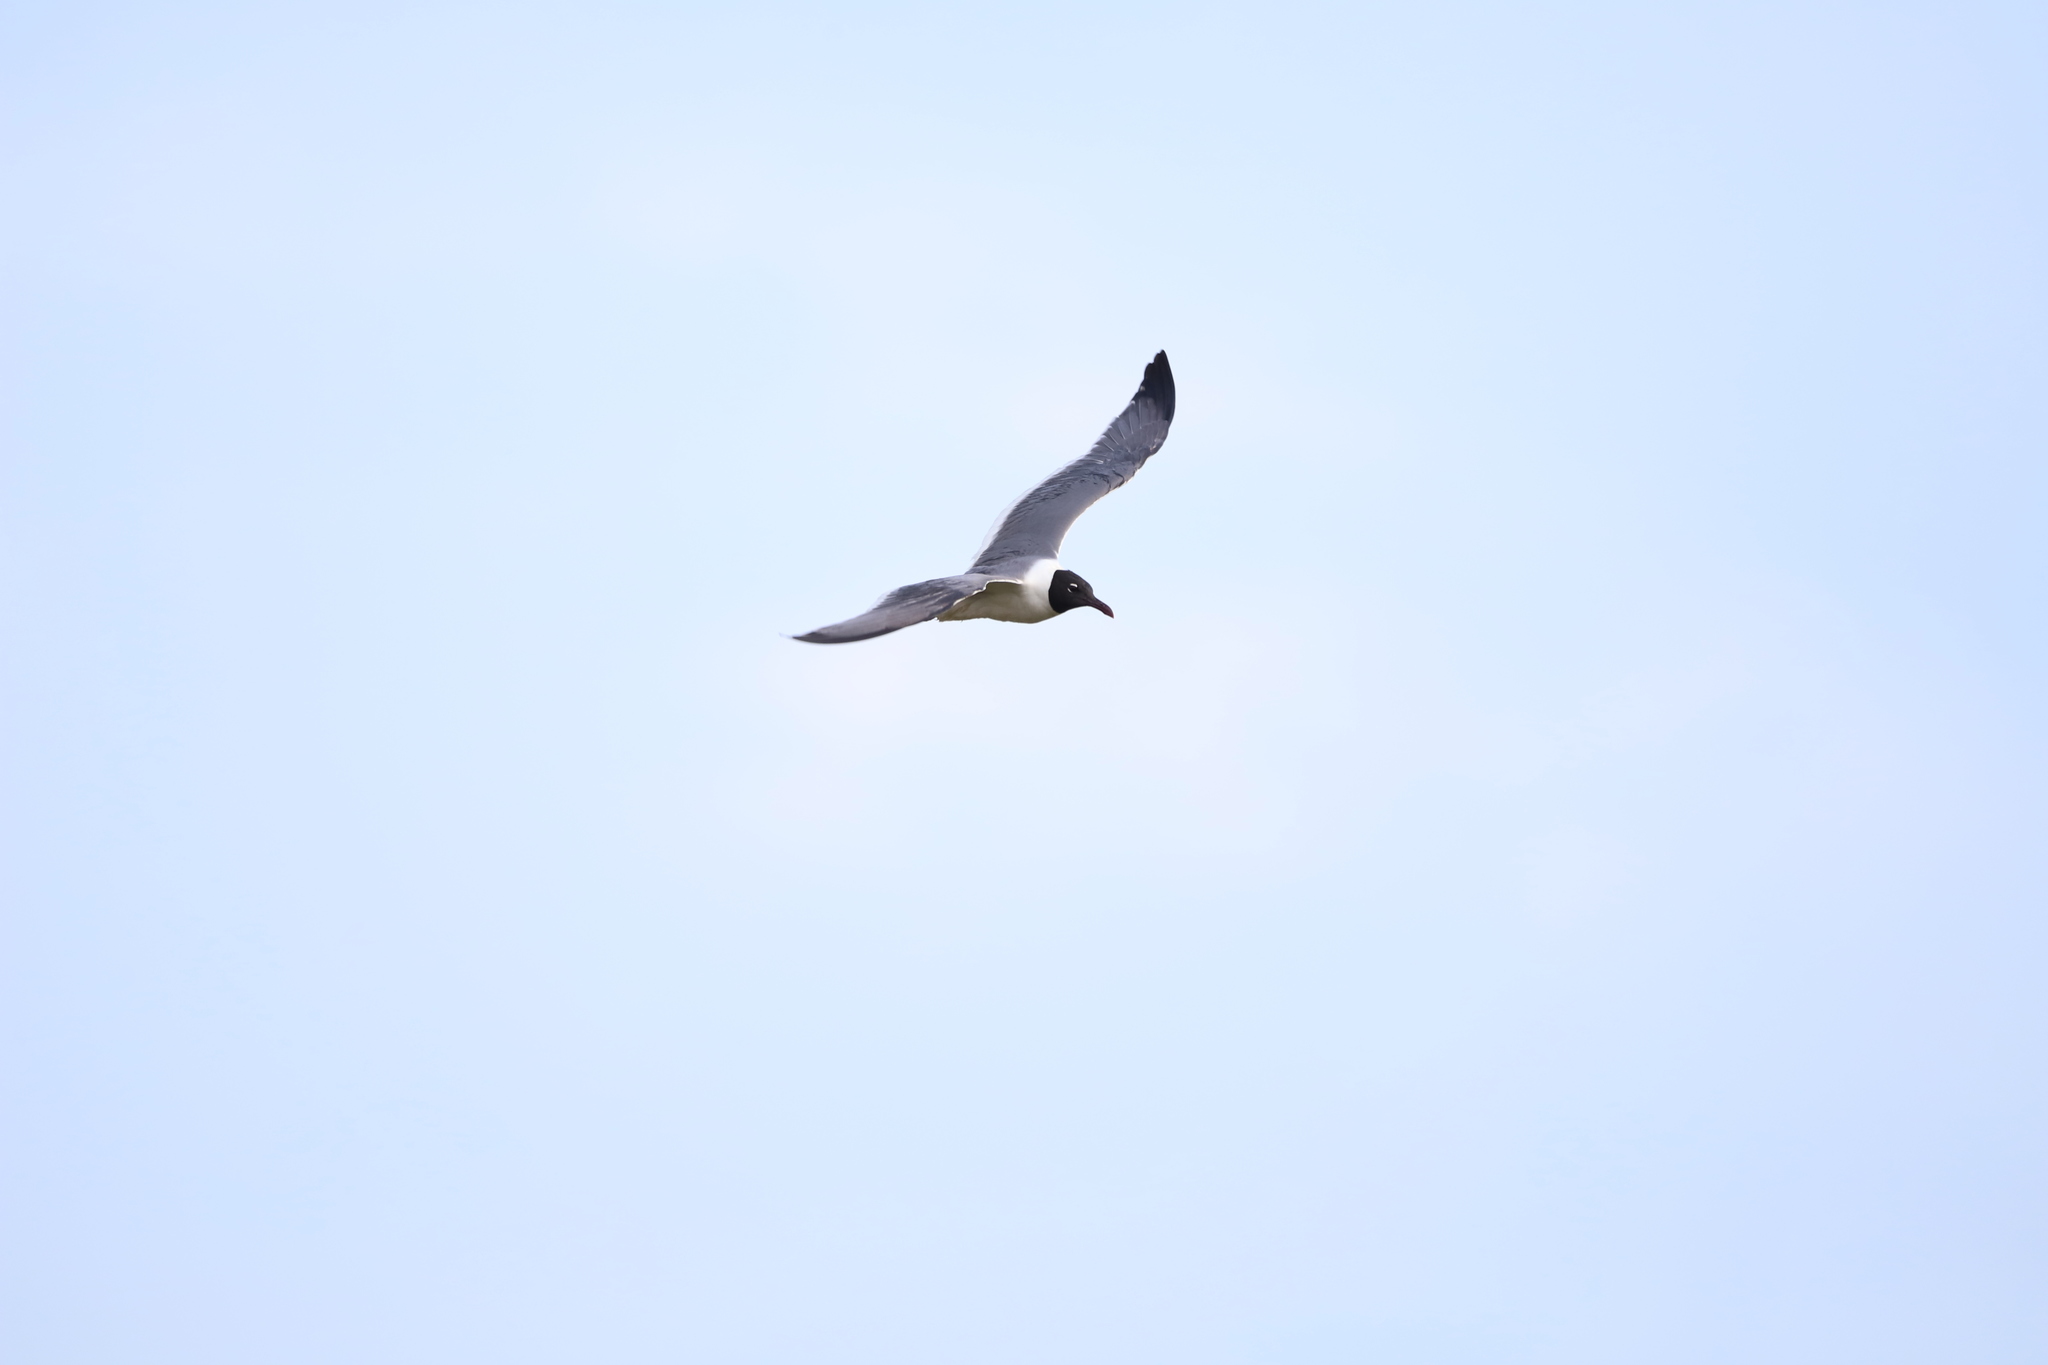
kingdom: Animalia
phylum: Chordata
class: Aves
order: Charadriiformes
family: Laridae
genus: Leucophaeus
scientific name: Leucophaeus atricilla
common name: Laughing gull
